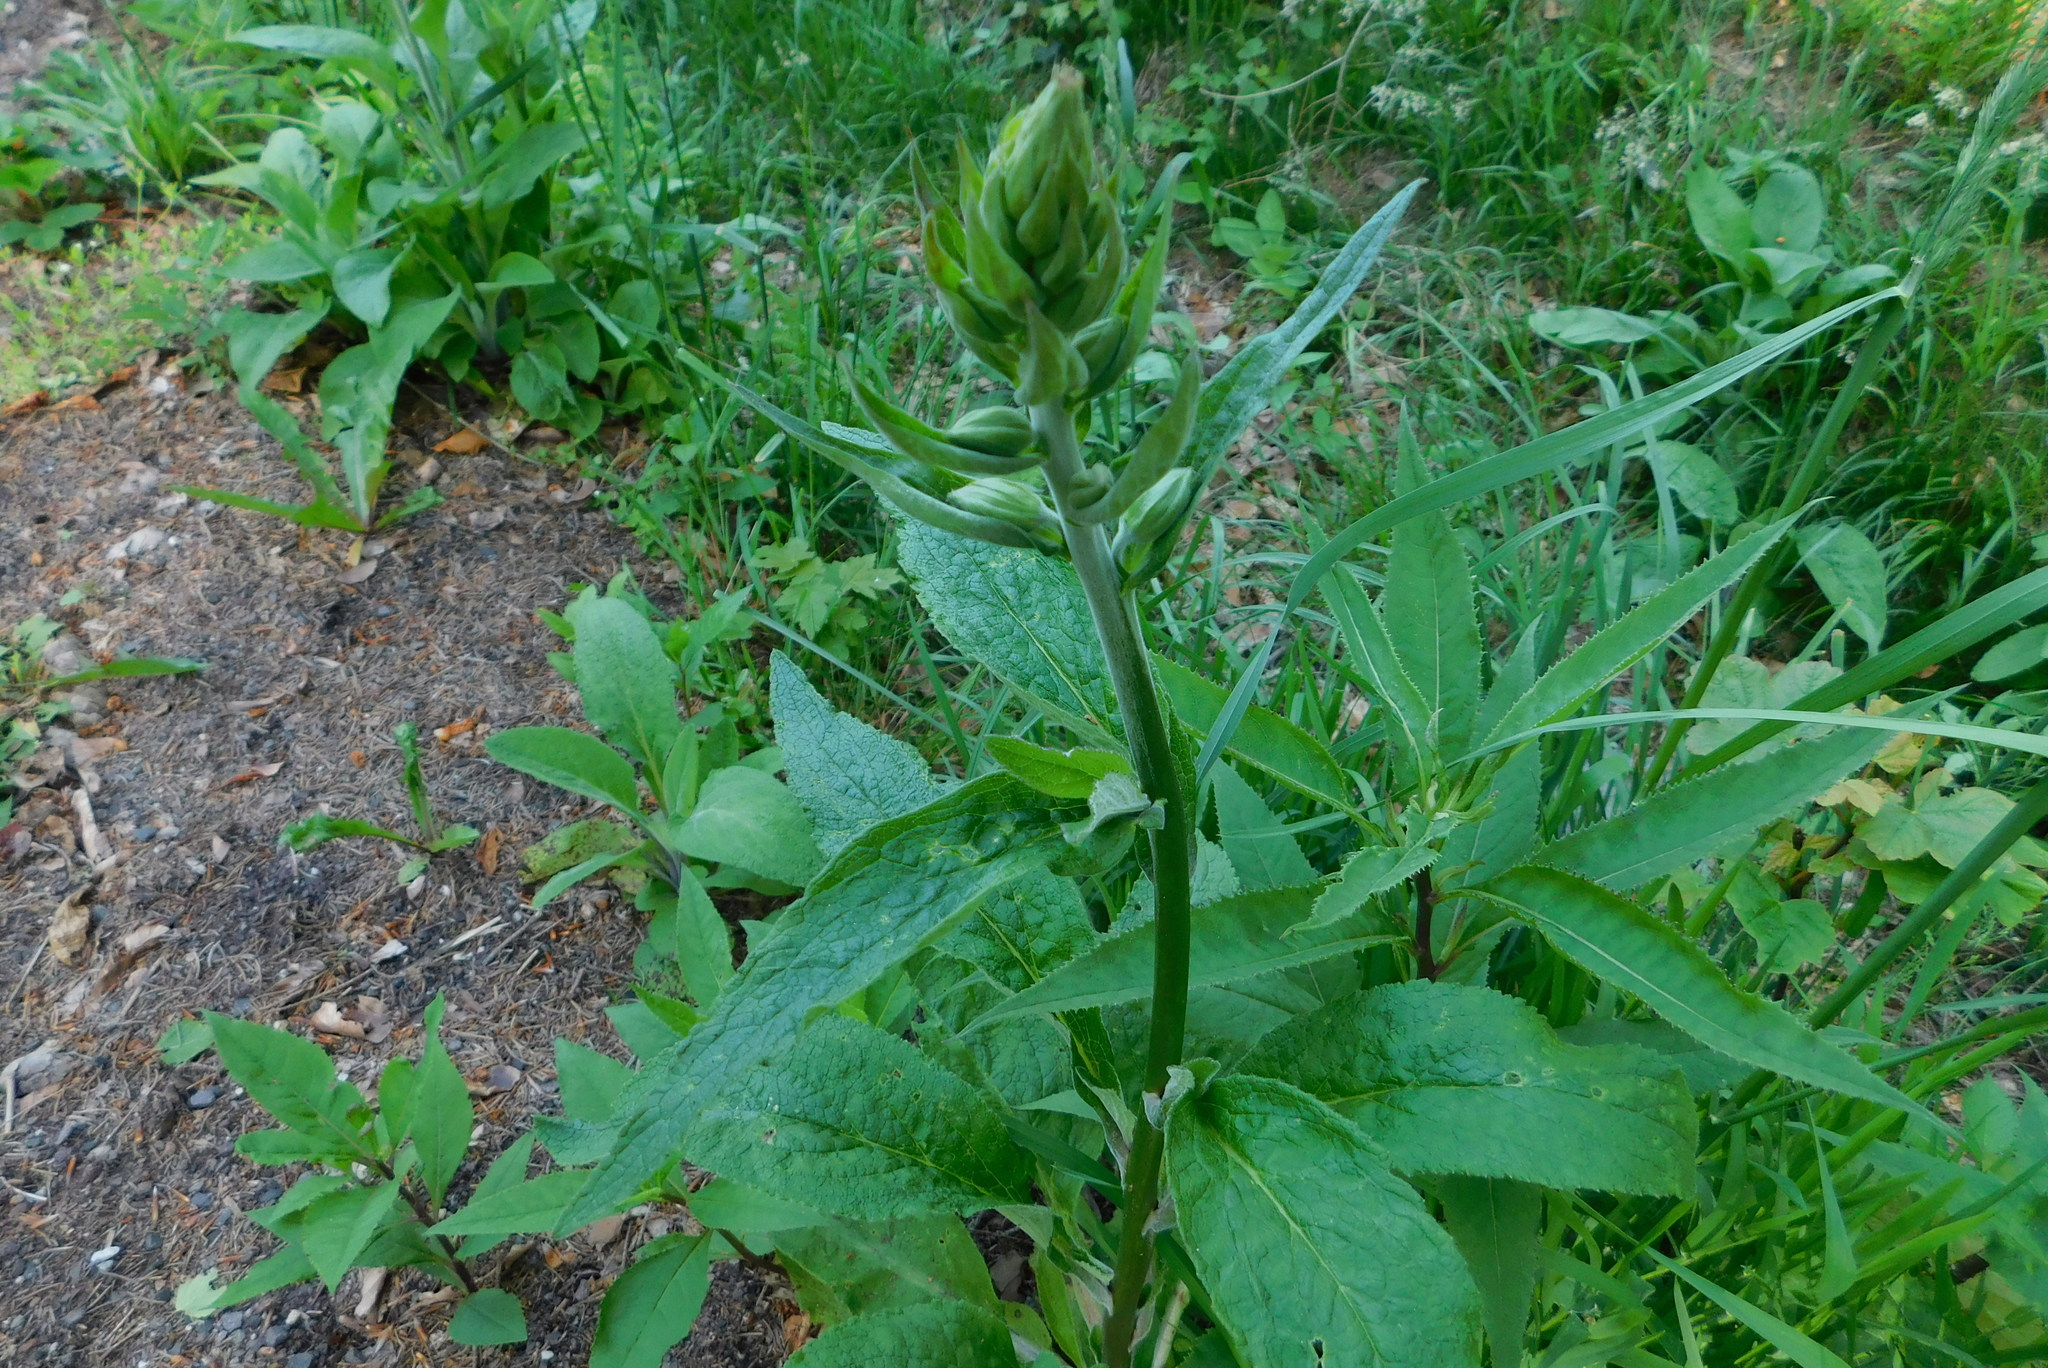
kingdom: Plantae
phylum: Tracheophyta
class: Magnoliopsida
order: Lamiales
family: Plantaginaceae
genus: Digitalis
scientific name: Digitalis purpurea
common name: Foxglove
